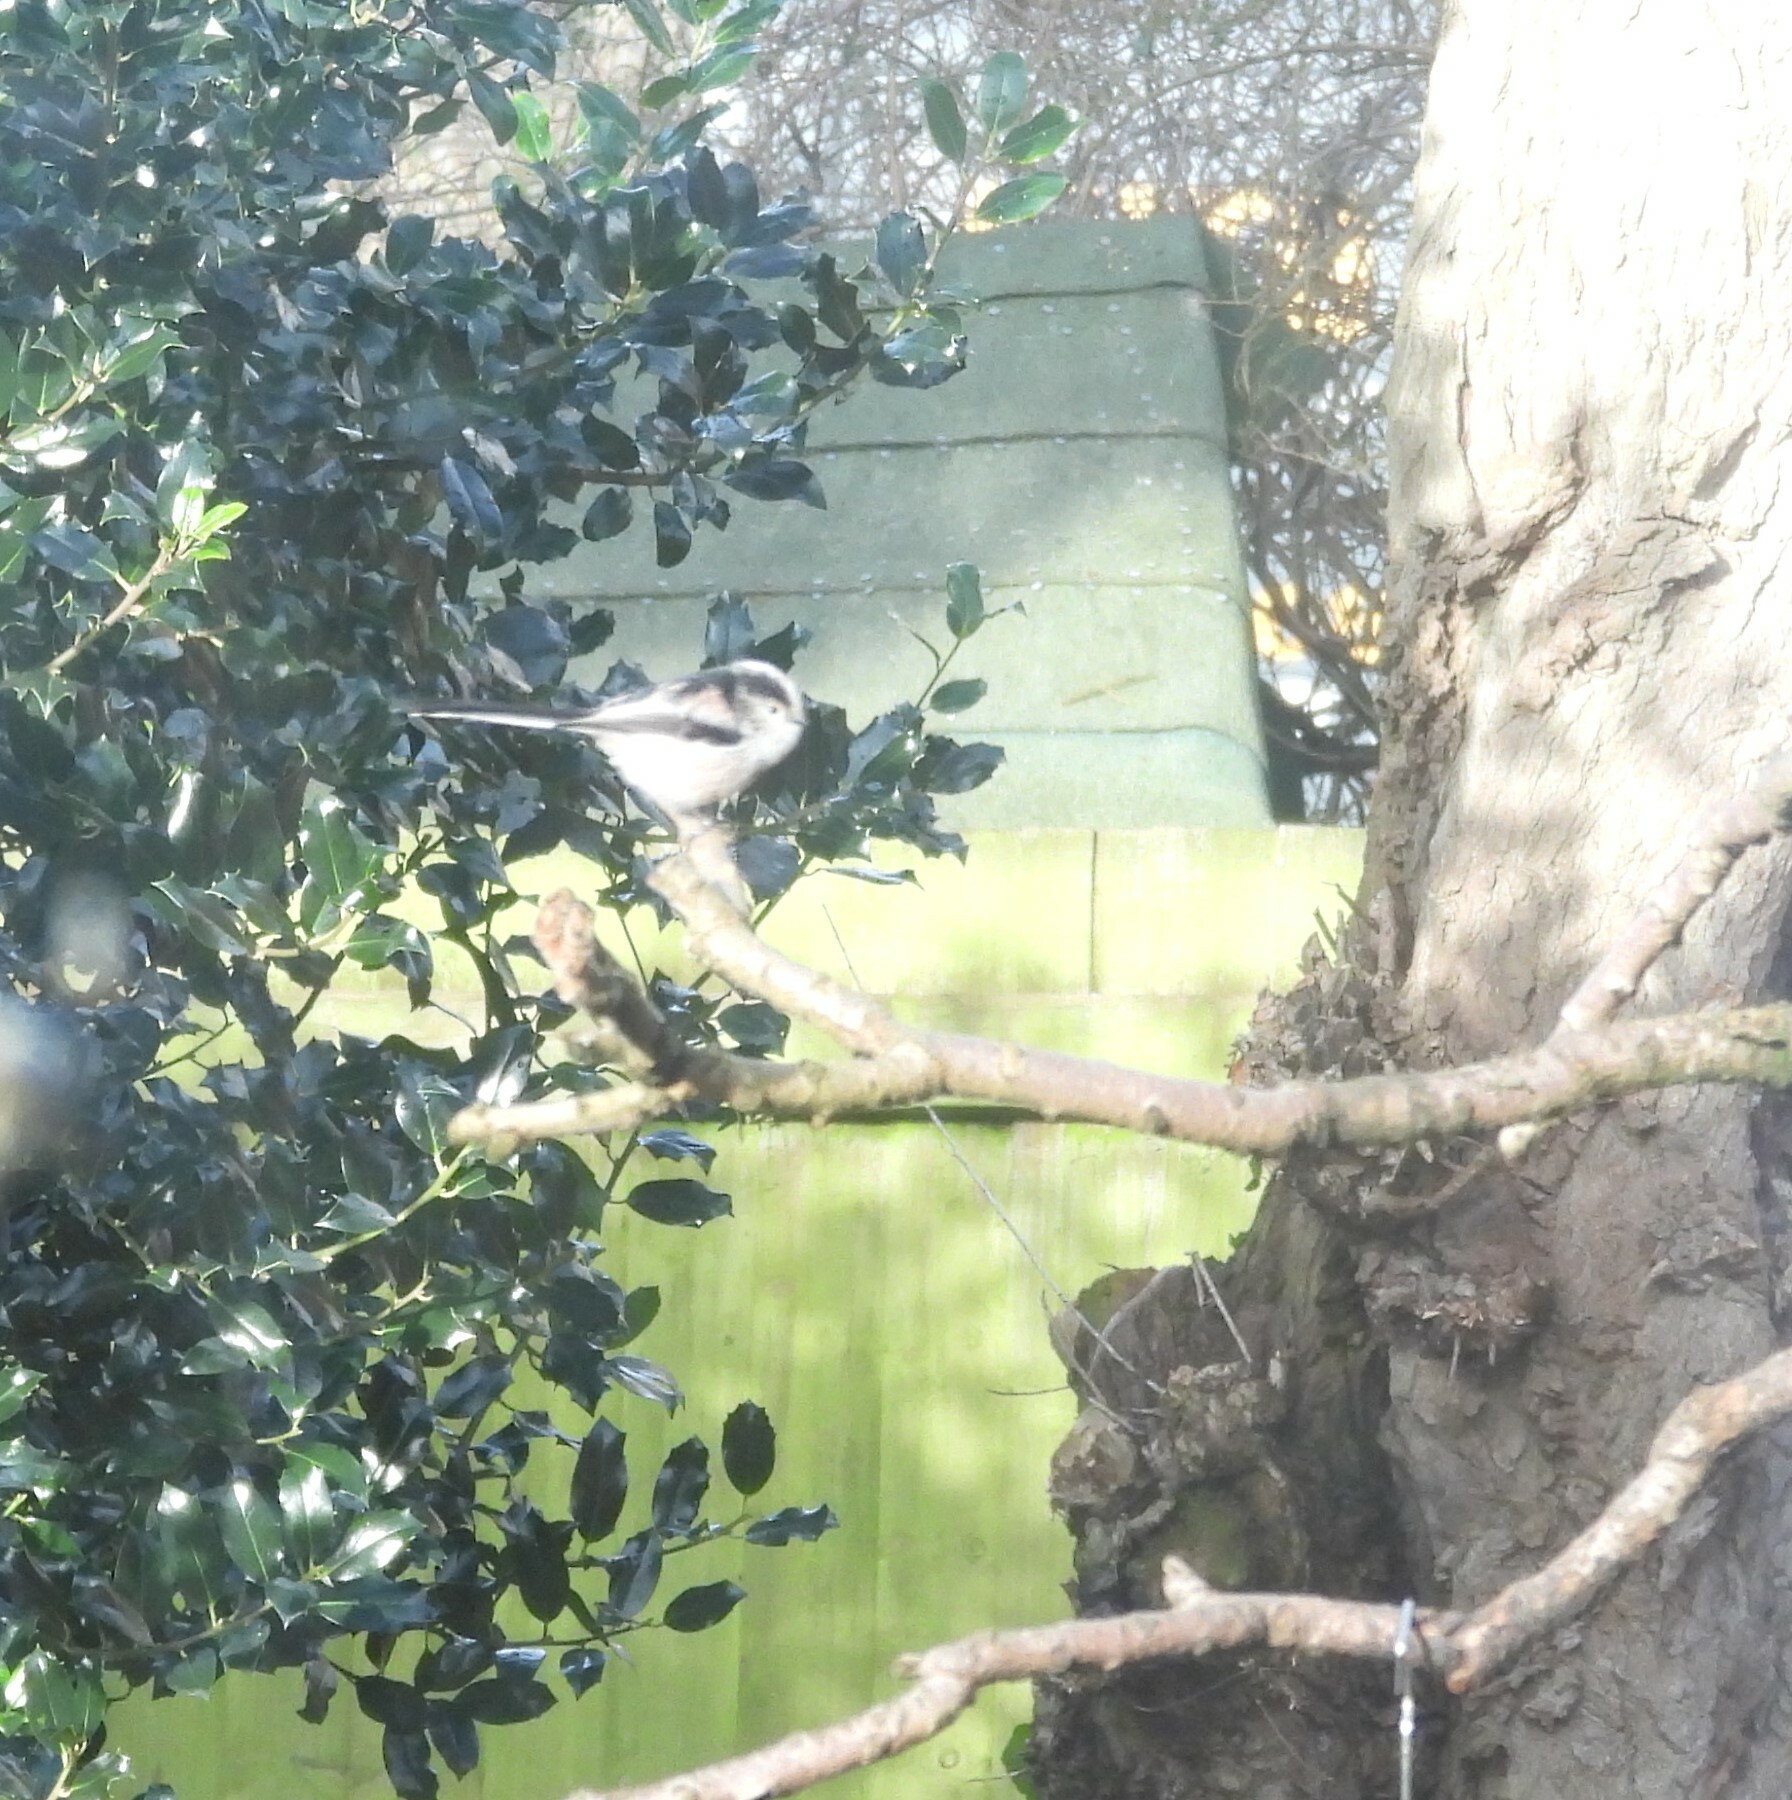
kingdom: Animalia
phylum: Chordata
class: Aves
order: Passeriformes
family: Aegithalidae
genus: Aegithalos
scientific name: Aegithalos caudatus
